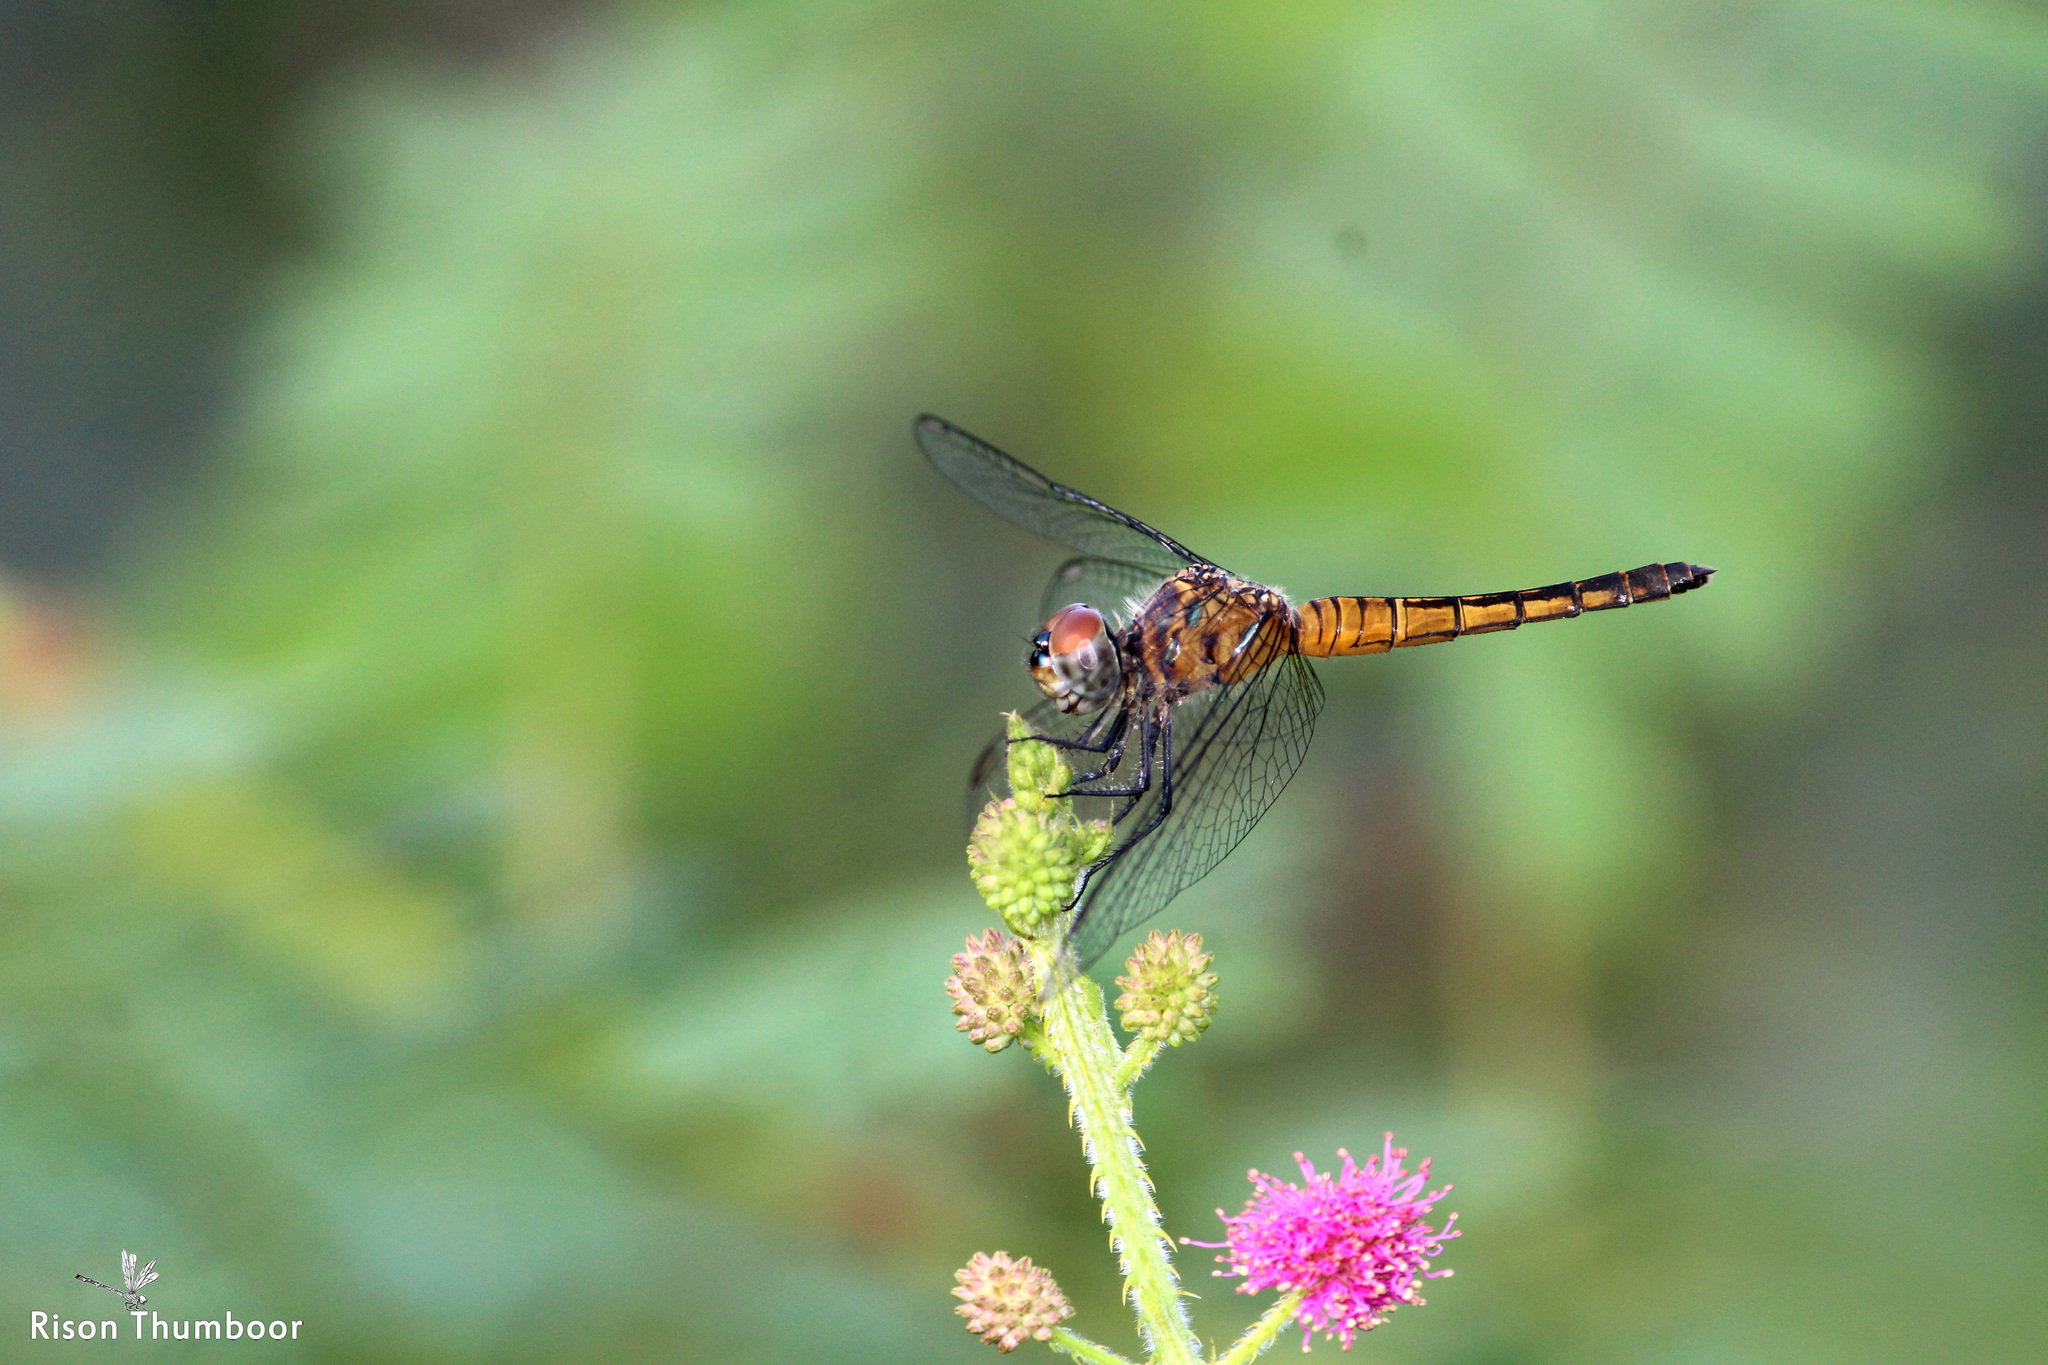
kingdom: Animalia
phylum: Arthropoda
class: Insecta
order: Odonata
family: Libellulidae
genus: Brachydiplax
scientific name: Brachydiplax chalybea
